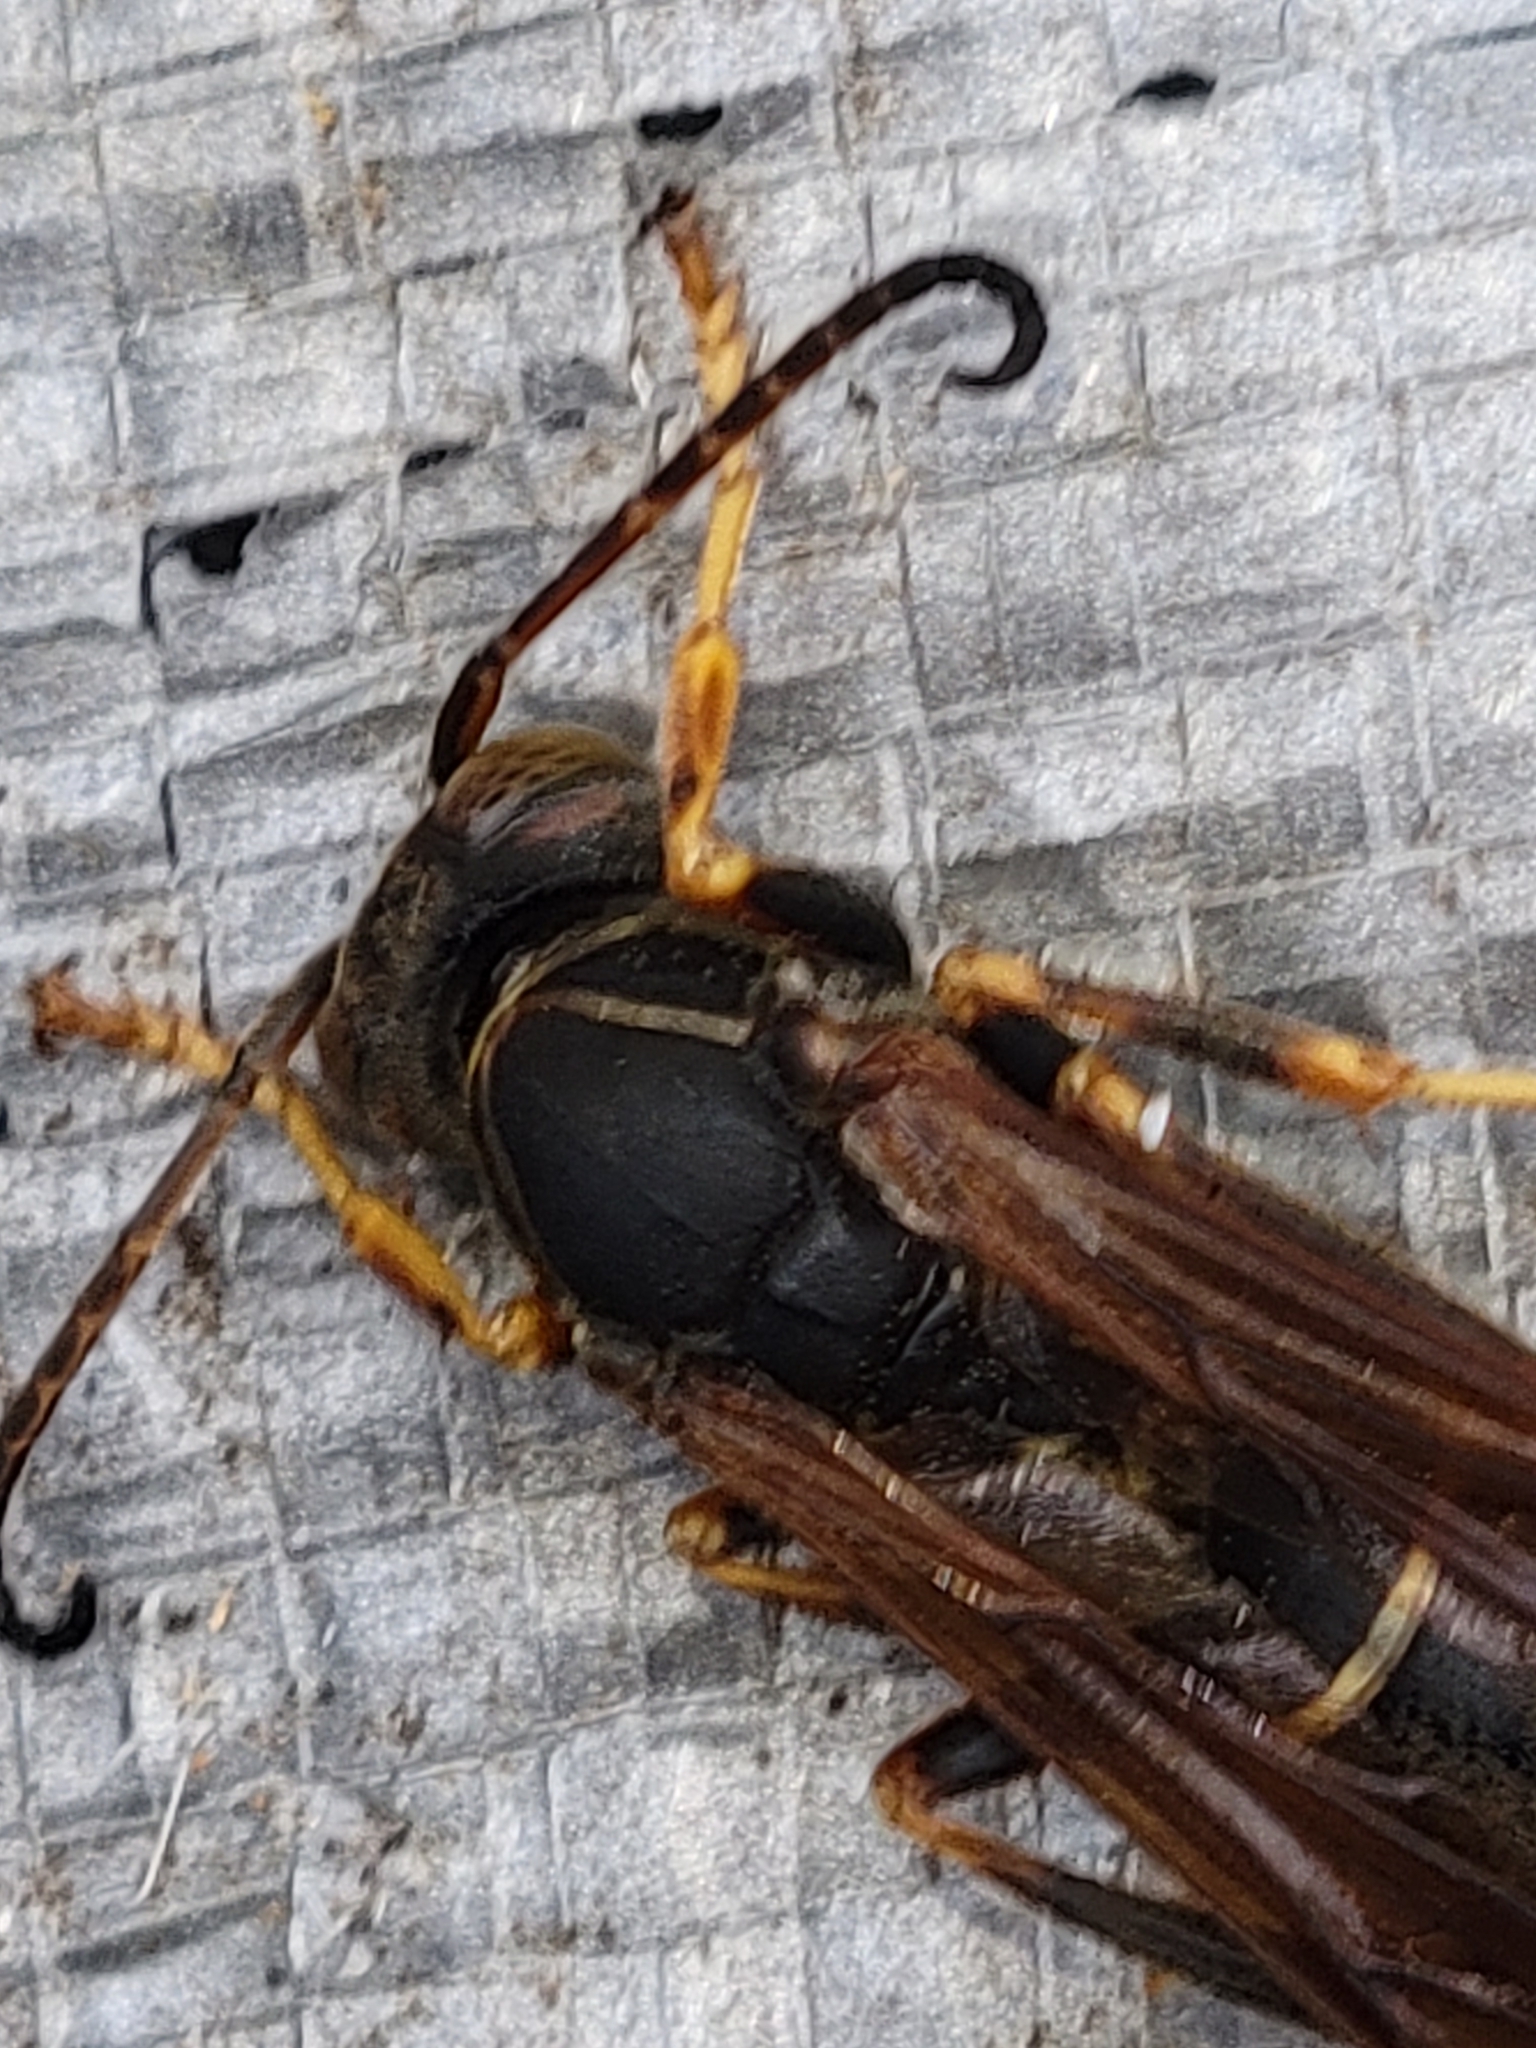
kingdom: Animalia
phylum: Arthropoda
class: Insecta
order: Hymenoptera
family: Eumenidae
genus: Polistes
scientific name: Polistes fuscatus
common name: Dark paper wasp
